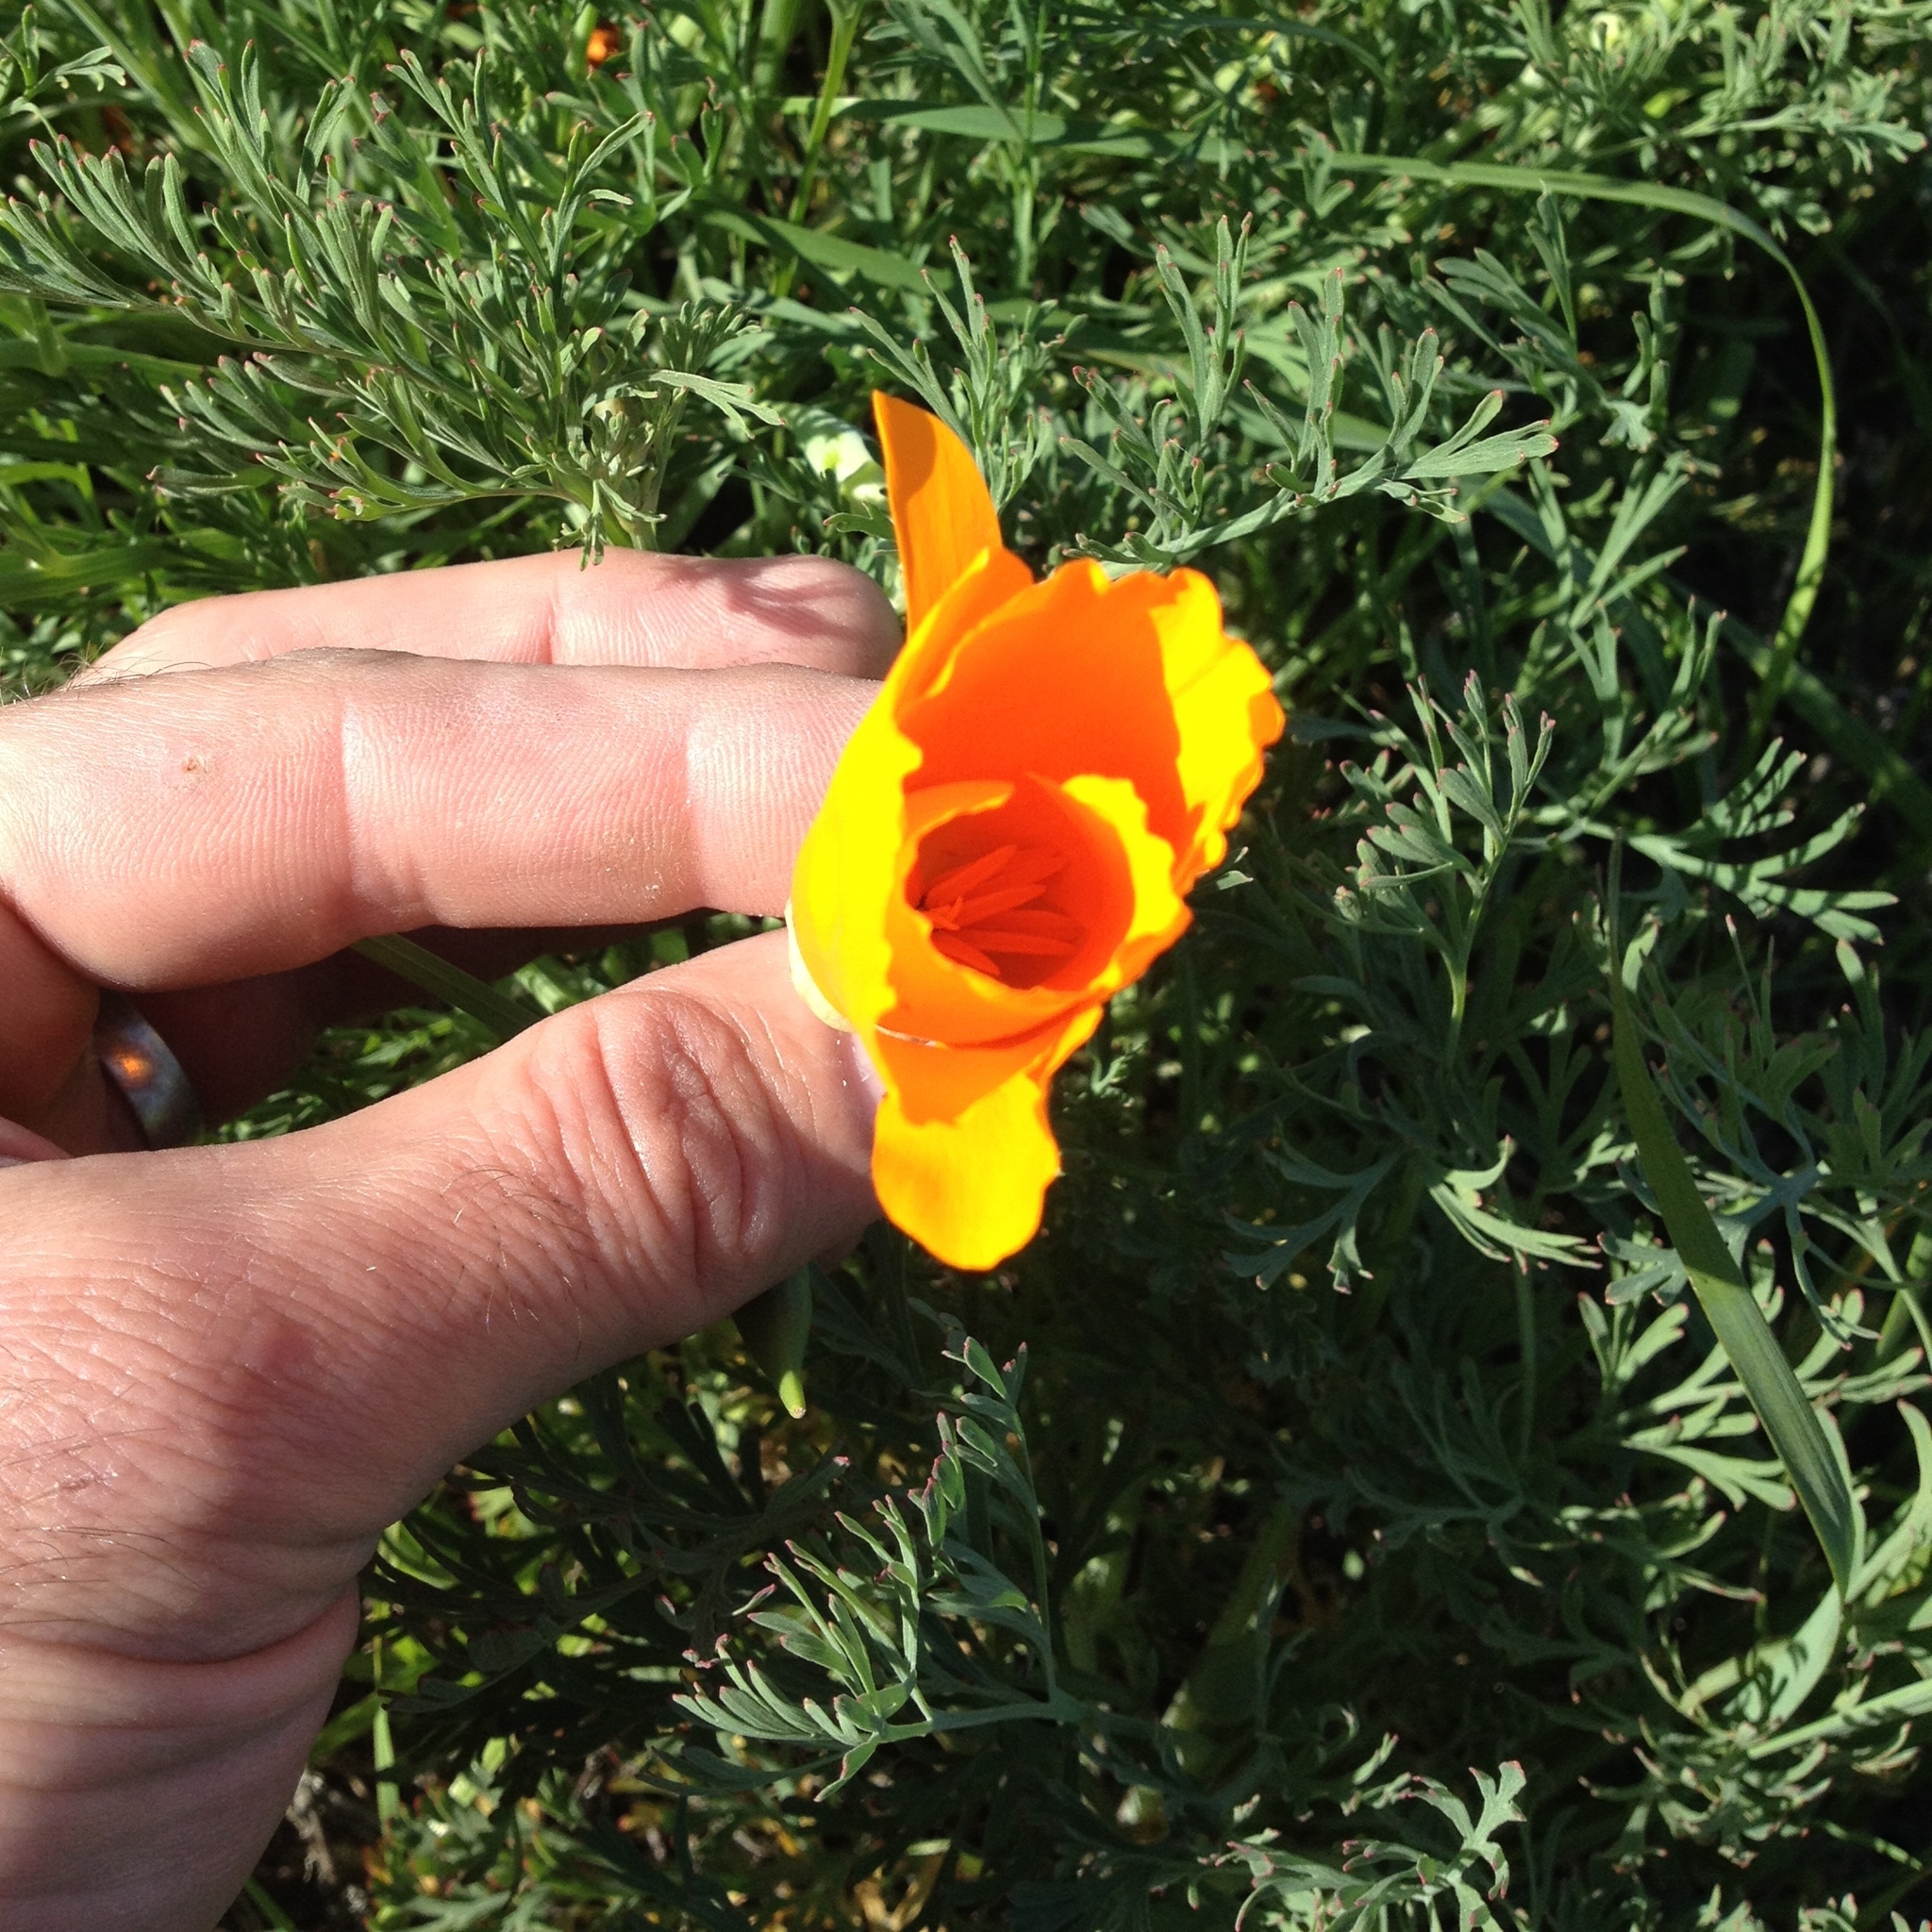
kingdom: Plantae
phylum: Tracheophyta
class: Magnoliopsida
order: Ranunculales
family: Papaveraceae
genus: Eschscholzia
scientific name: Eschscholzia californica
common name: California poppy
